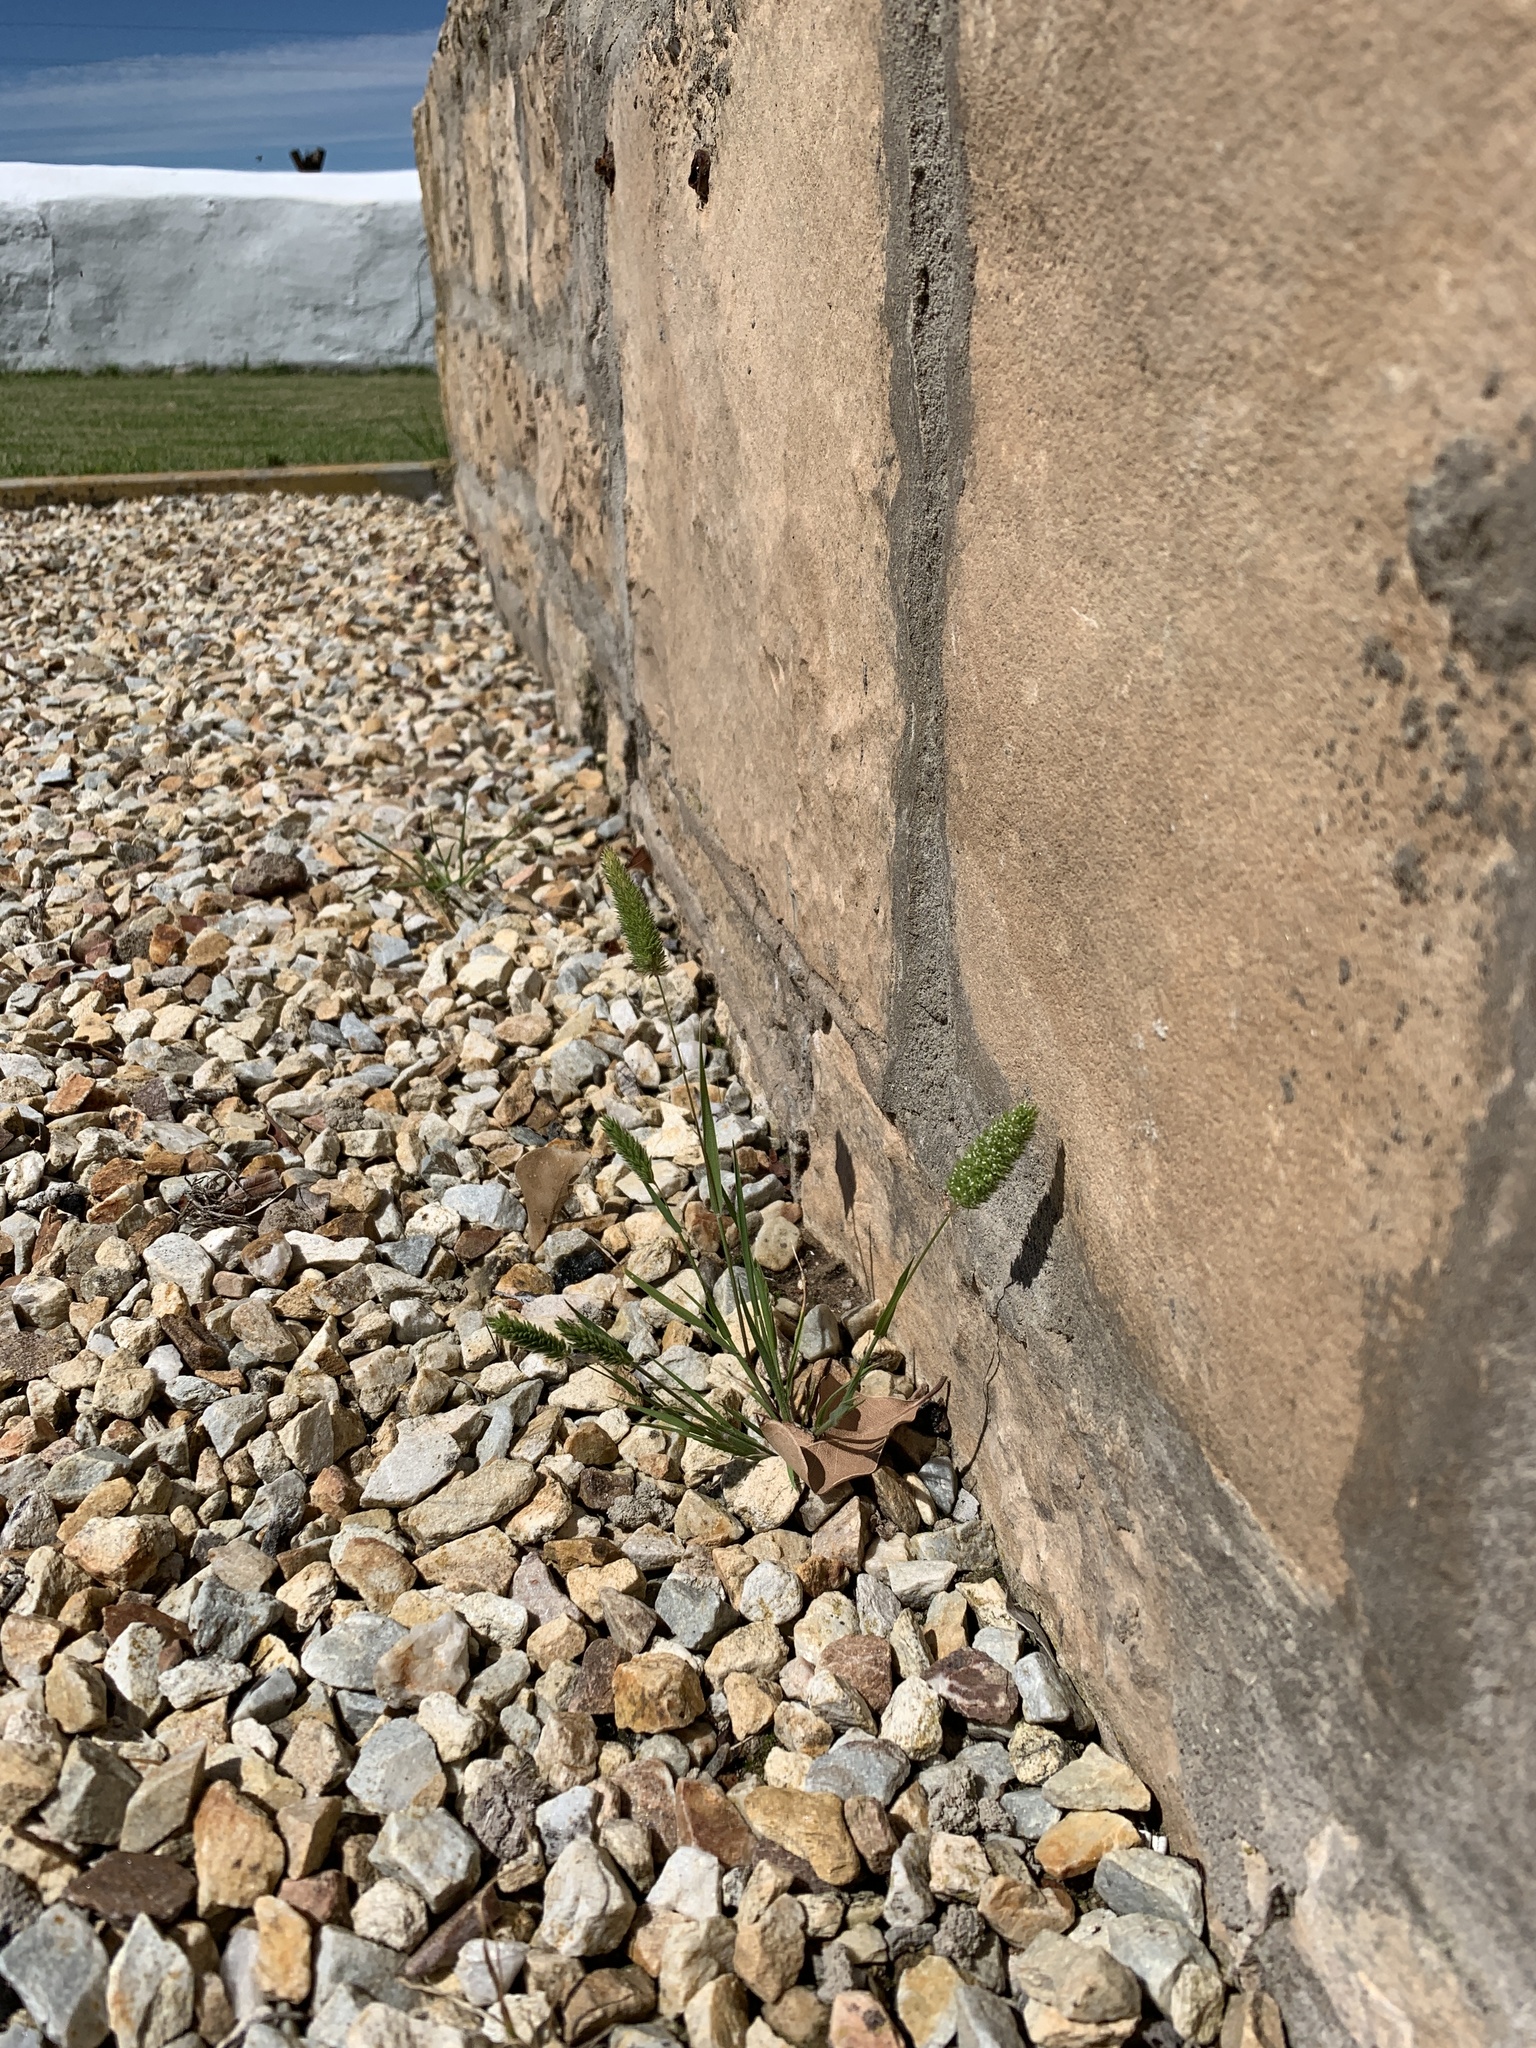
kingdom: Plantae
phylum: Tracheophyta
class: Liliopsida
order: Poales
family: Poaceae
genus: Rostraria
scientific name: Rostraria cristata
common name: Mediterranean hair-grass
